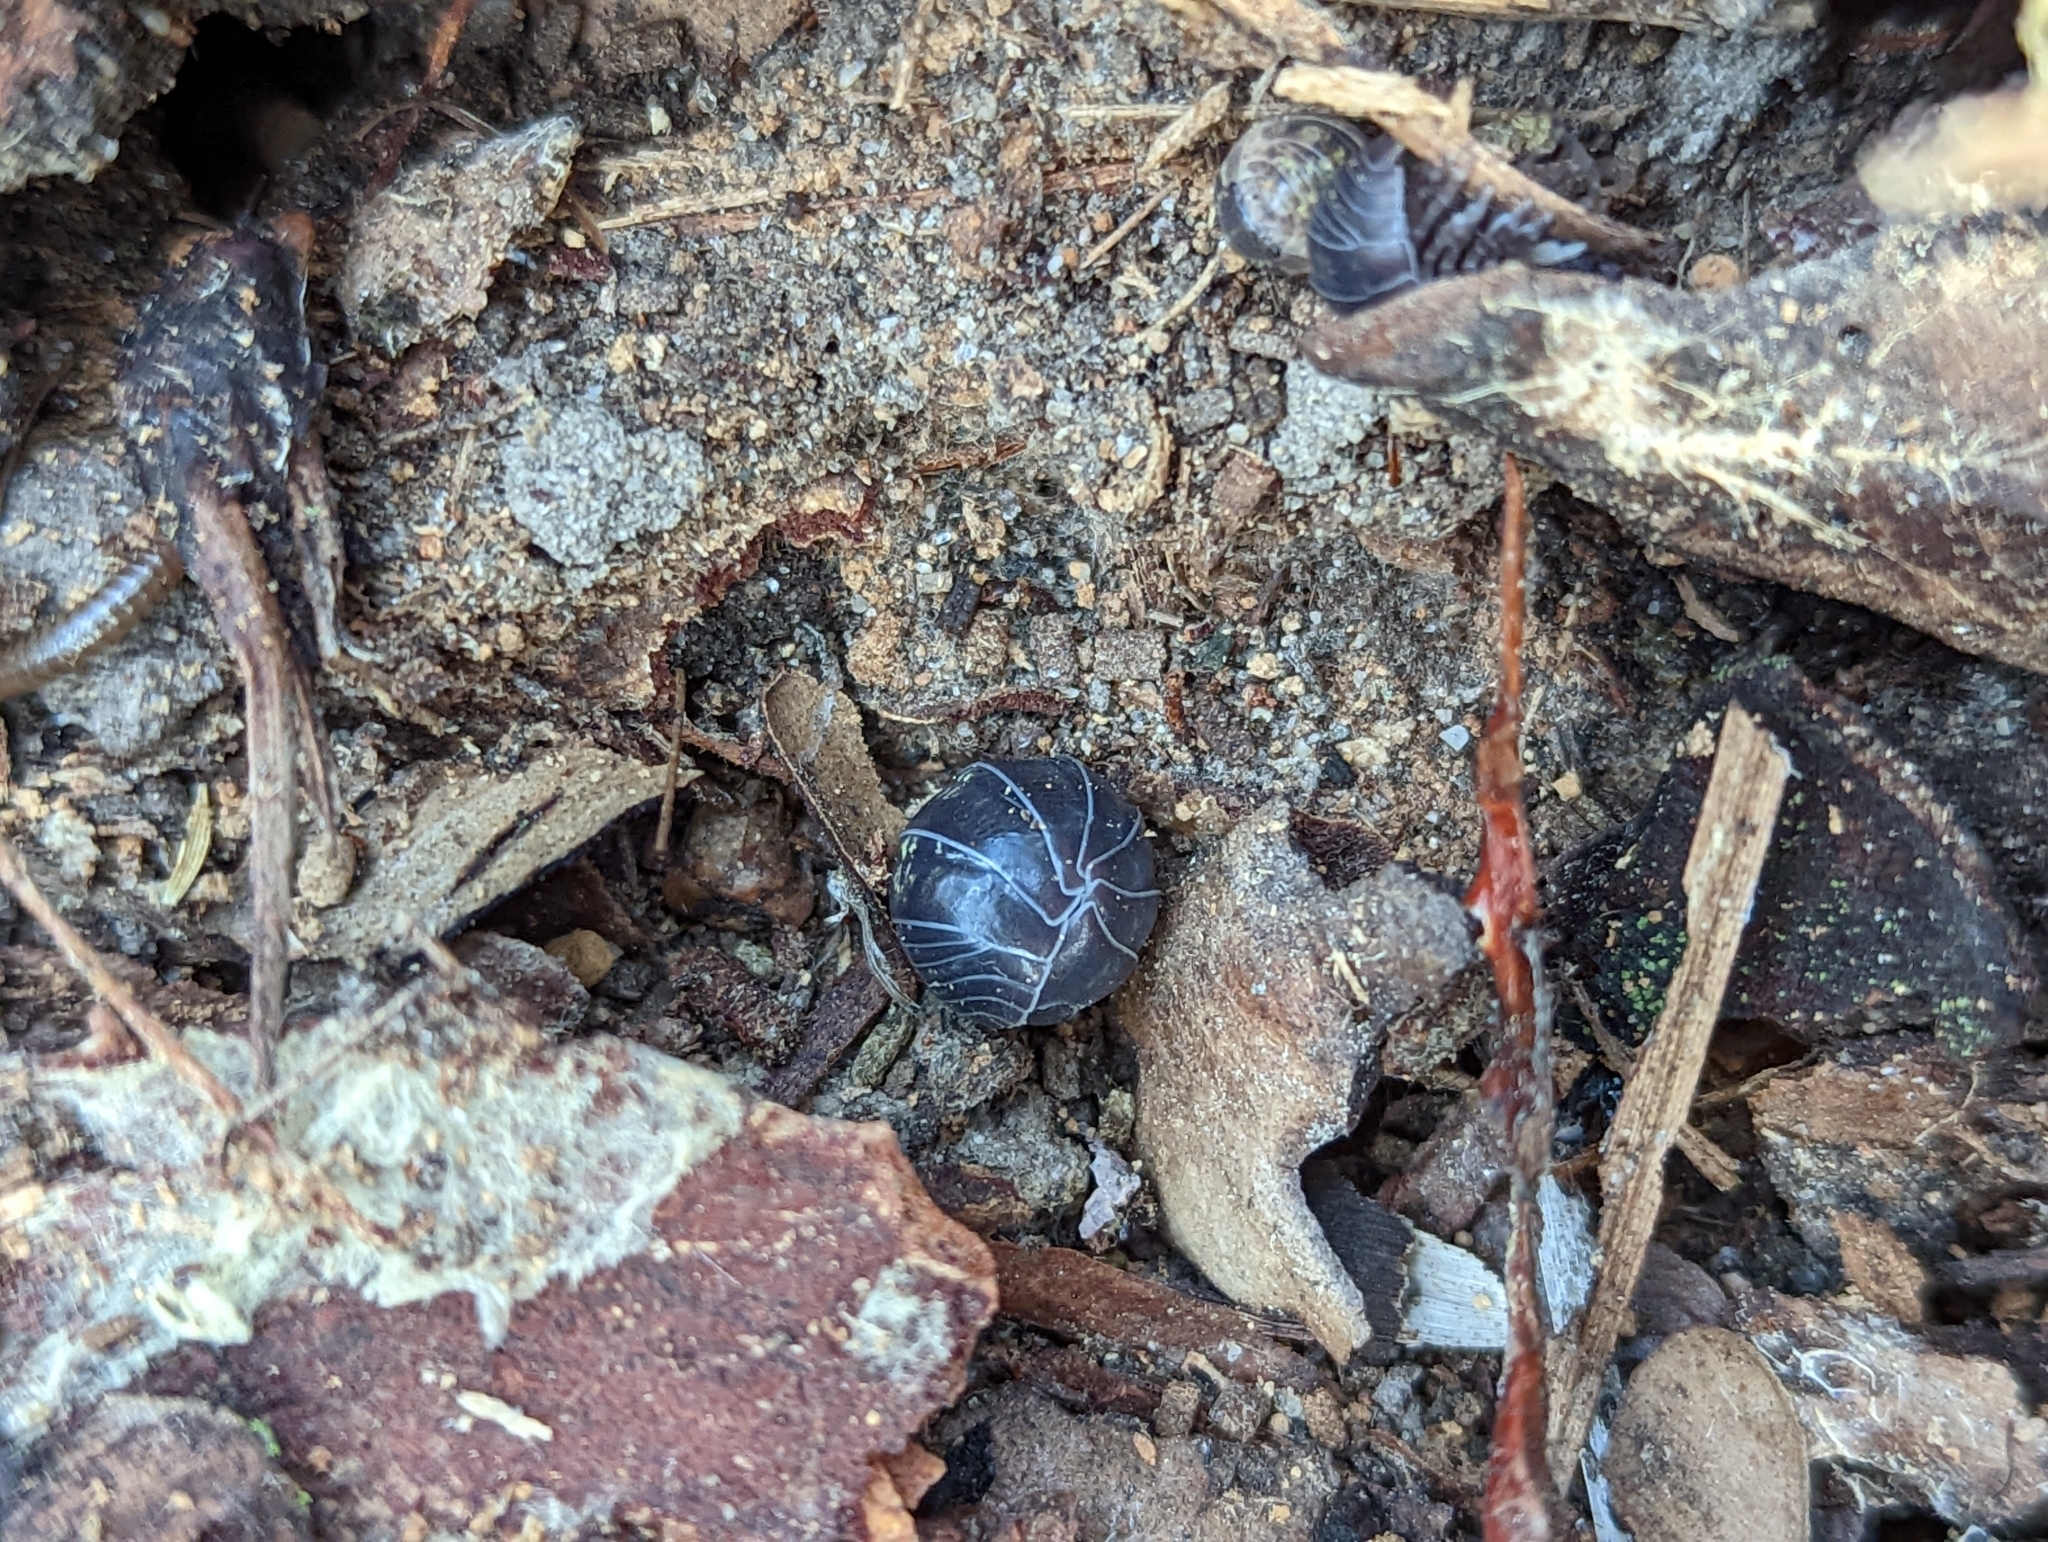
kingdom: Animalia
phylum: Arthropoda
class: Malacostraca
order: Isopoda
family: Armadillidiidae
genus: Armadillidium
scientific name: Armadillidium vulgare
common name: Common pill woodlouse
